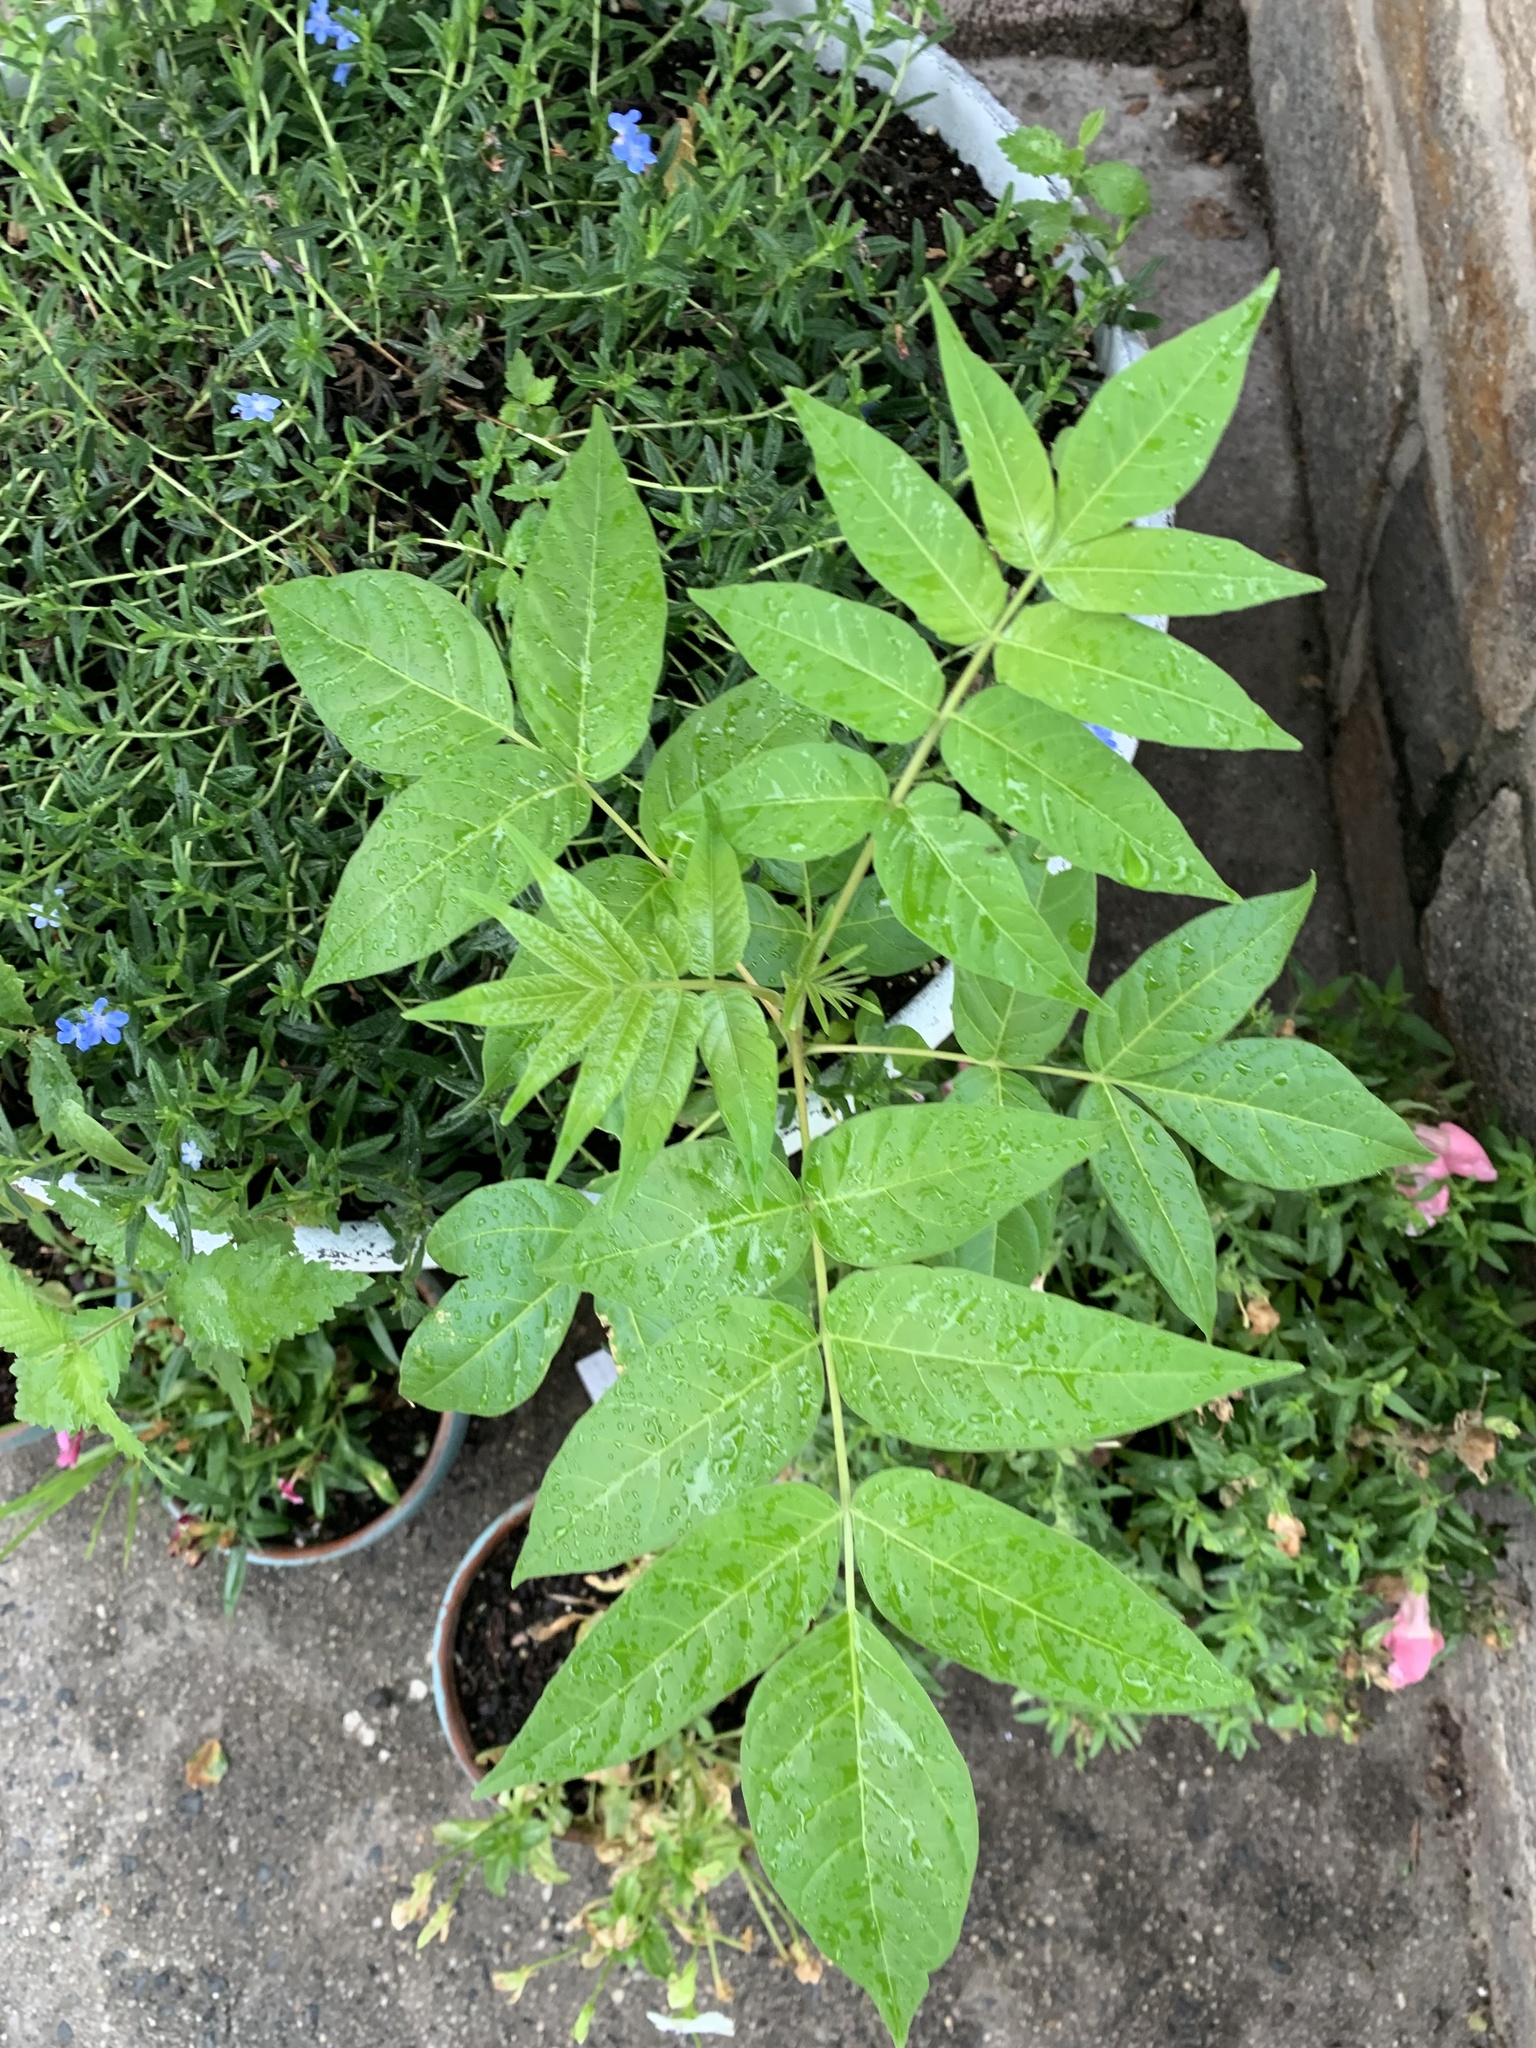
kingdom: Plantae
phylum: Tracheophyta
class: Magnoliopsida
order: Sapindales
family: Simaroubaceae
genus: Ailanthus
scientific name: Ailanthus altissima
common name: Tree-of-heaven
